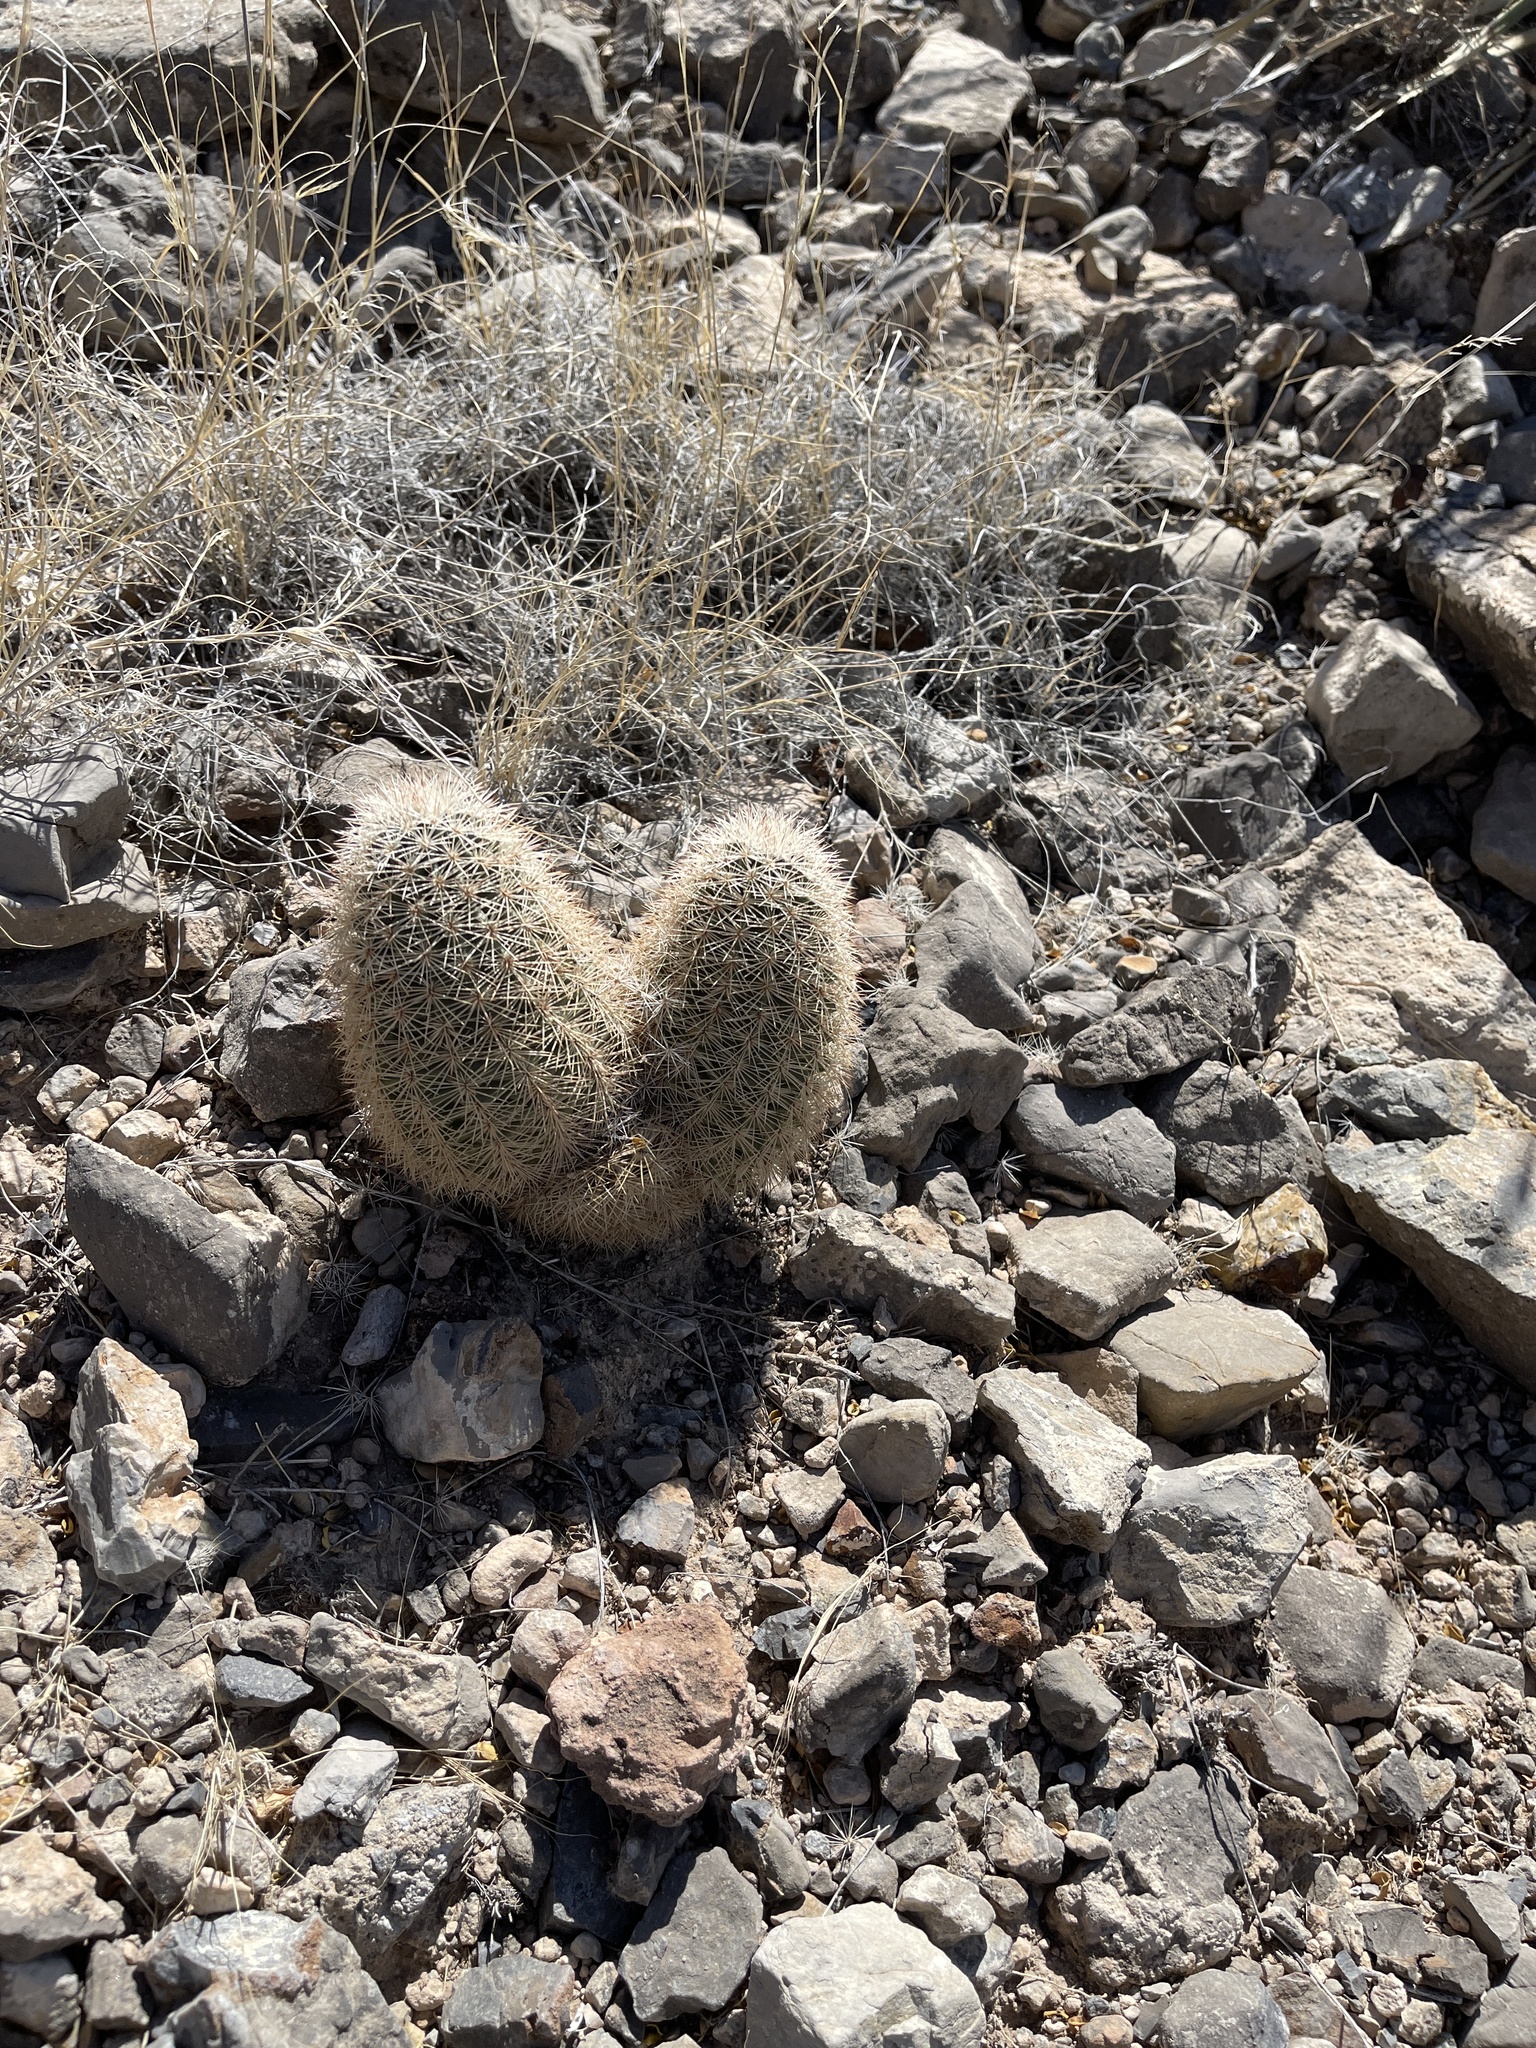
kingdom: Plantae
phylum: Tracheophyta
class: Magnoliopsida
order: Caryophyllales
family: Cactaceae
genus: Echinocereus
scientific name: Echinocereus dasyacanthus
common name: Spiny hedgehog cactus
